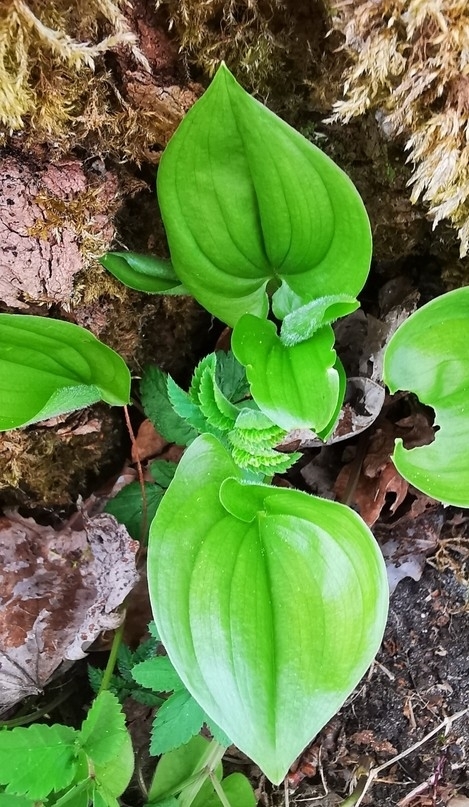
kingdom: Plantae
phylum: Tracheophyta
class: Liliopsida
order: Asparagales
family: Asparagaceae
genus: Maianthemum
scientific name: Maianthemum bifolium
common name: May lily
